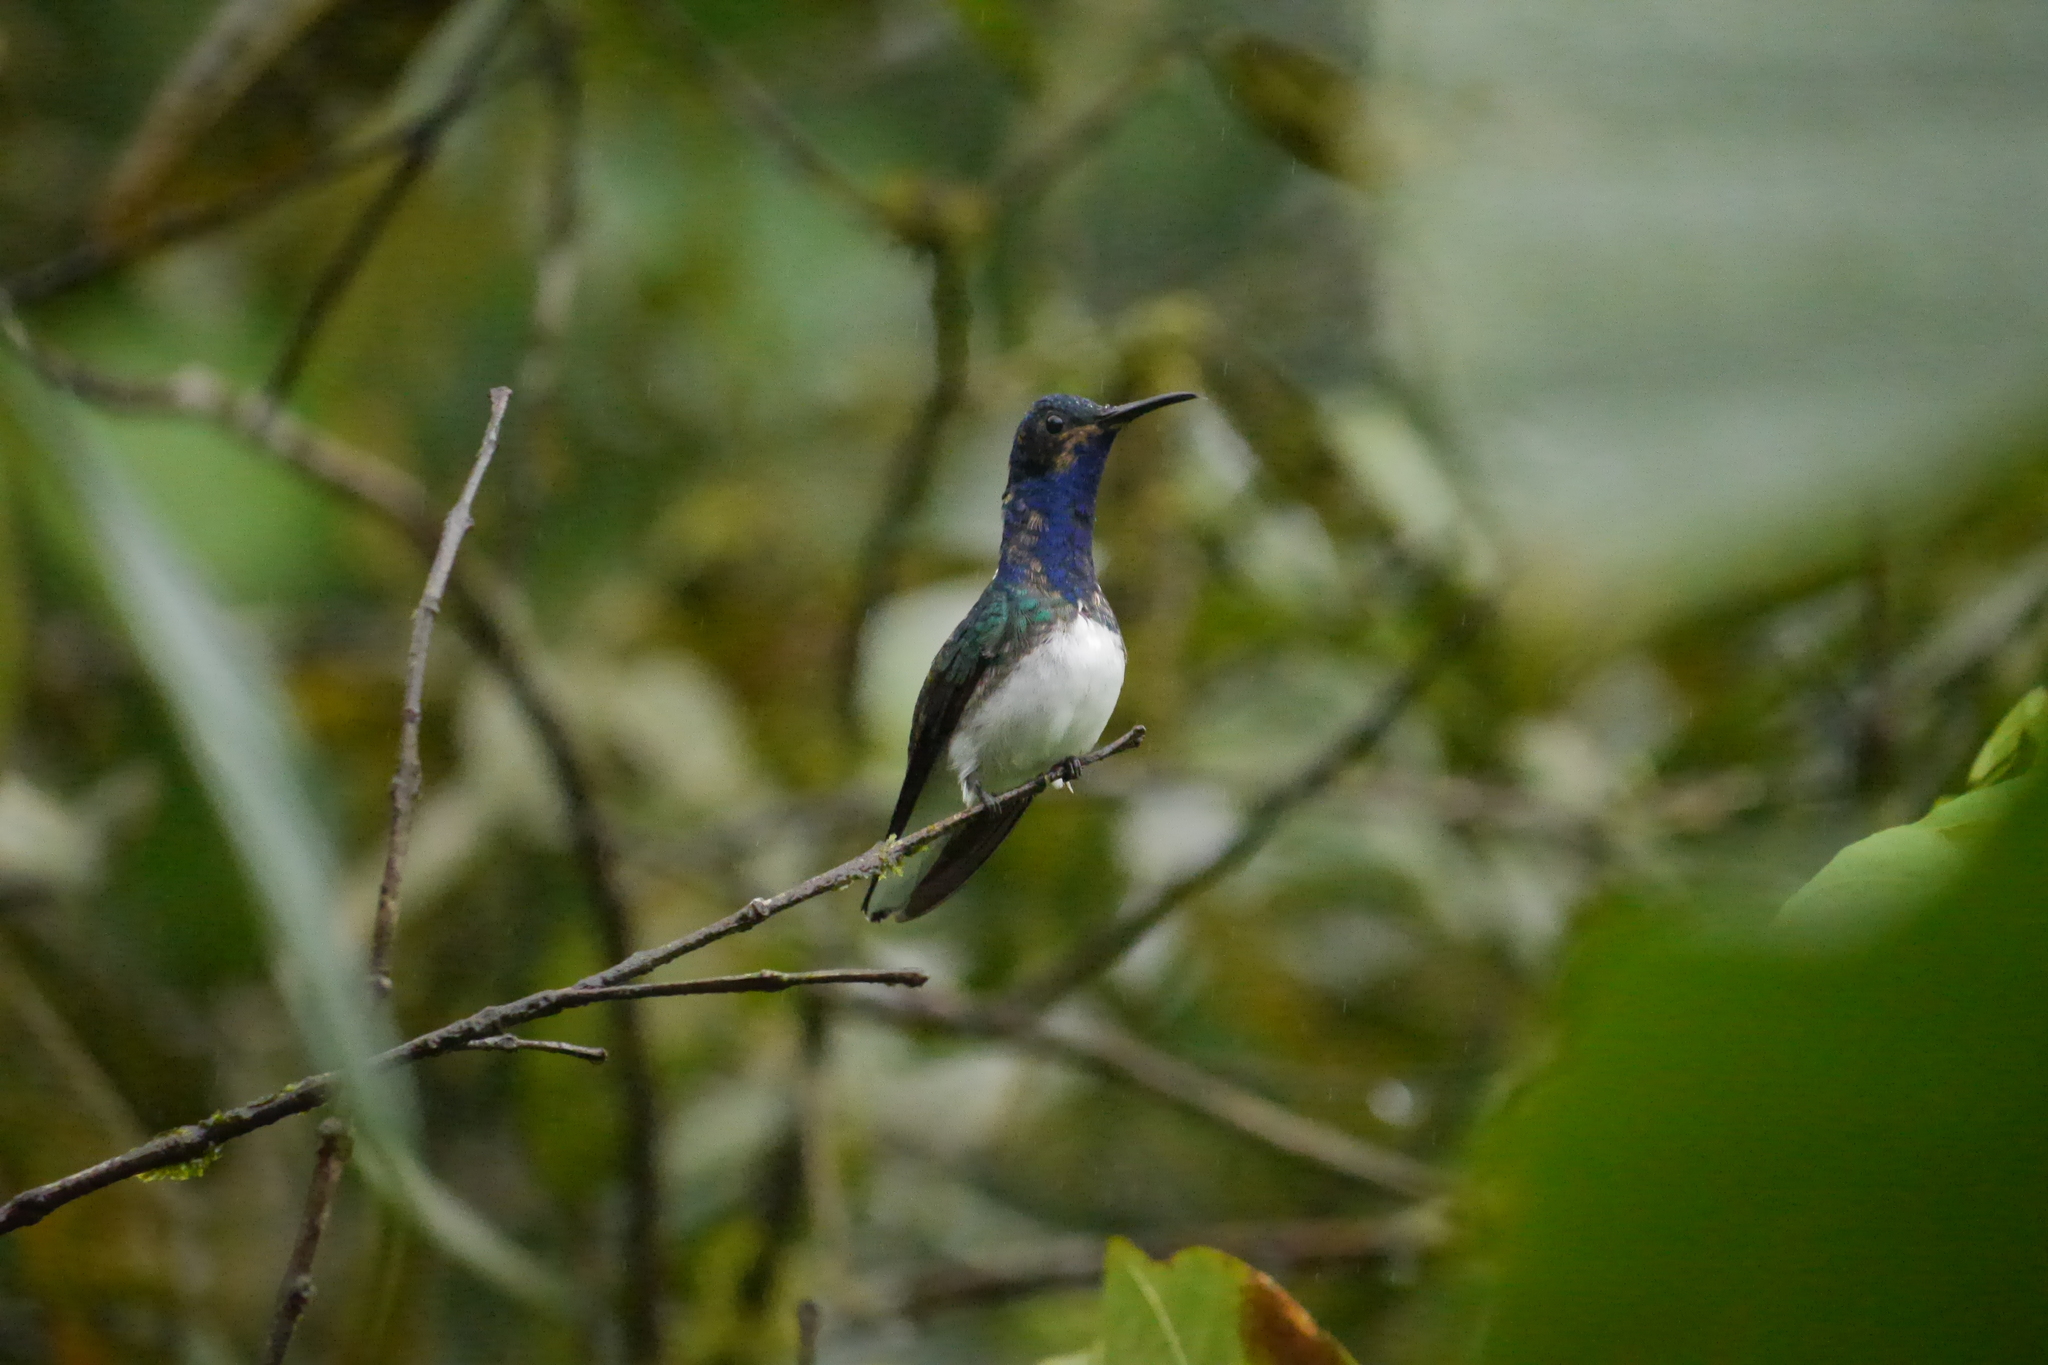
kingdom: Animalia
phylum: Chordata
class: Aves
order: Apodiformes
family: Trochilidae
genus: Florisuga
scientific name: Florisuga mellivora
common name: White-necked jacobin
